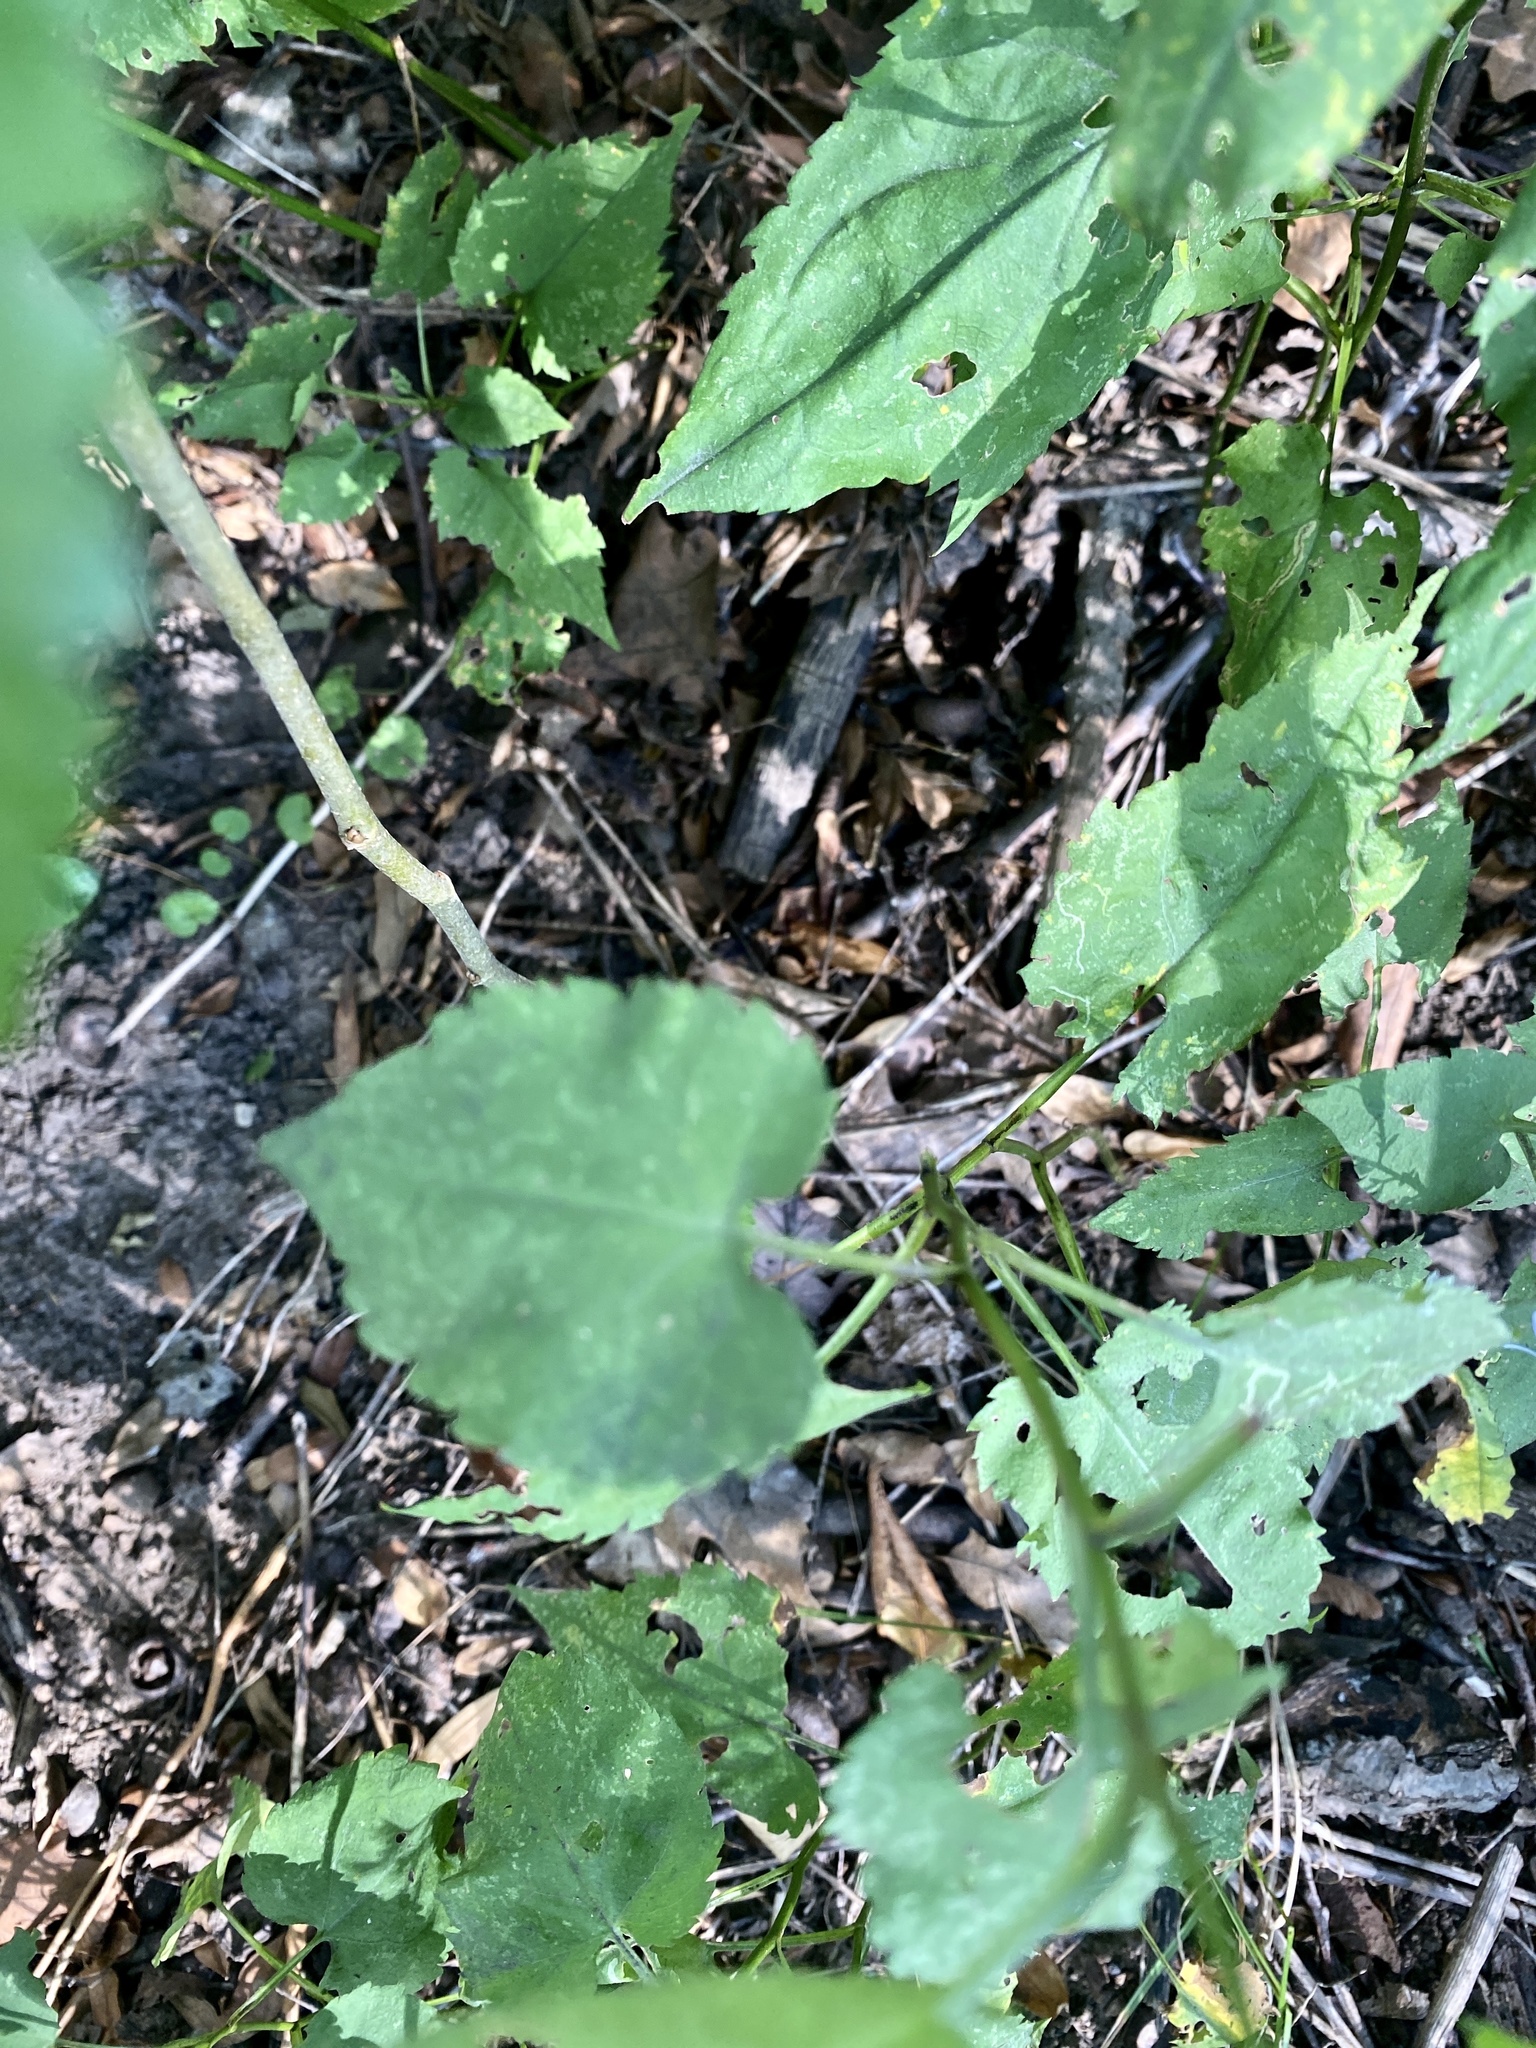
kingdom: Plantae
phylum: Tracheophyta
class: Magnoliopsida
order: Asterales
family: Asteraceae
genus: Symphyotrichum
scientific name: Symphyotrichum cordifolium
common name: Beeweed
